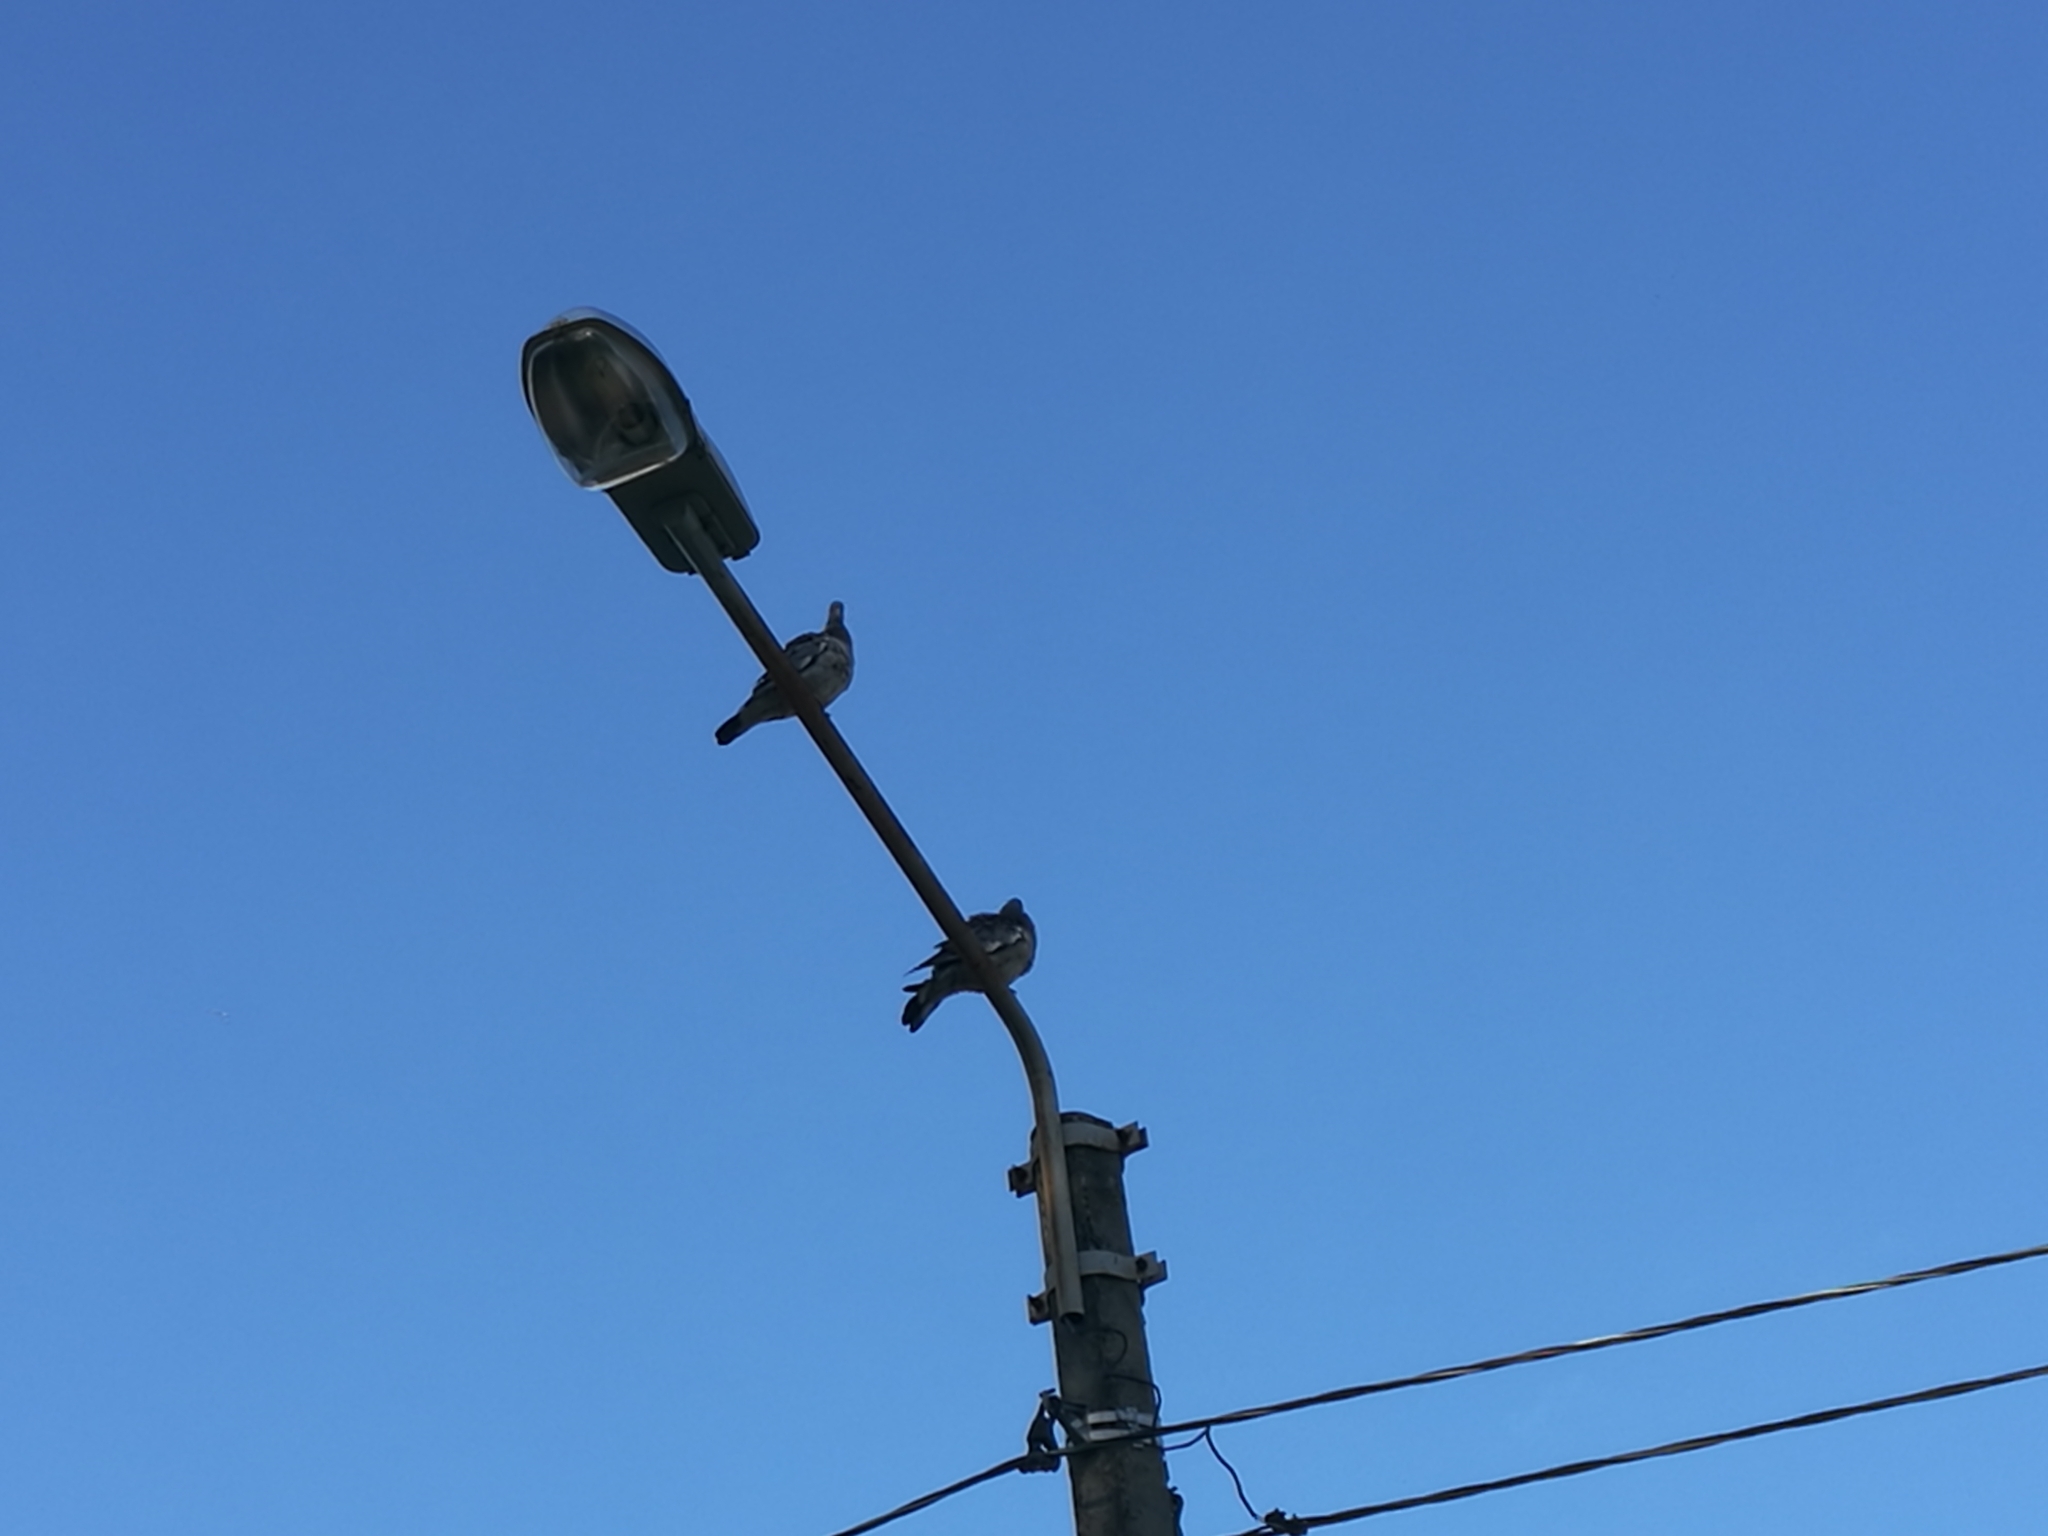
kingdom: Animalia
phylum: Chordata
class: Aves
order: Columbiformes
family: Columbidae
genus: Columba
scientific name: Columba palumbus
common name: Common wood pigeon
